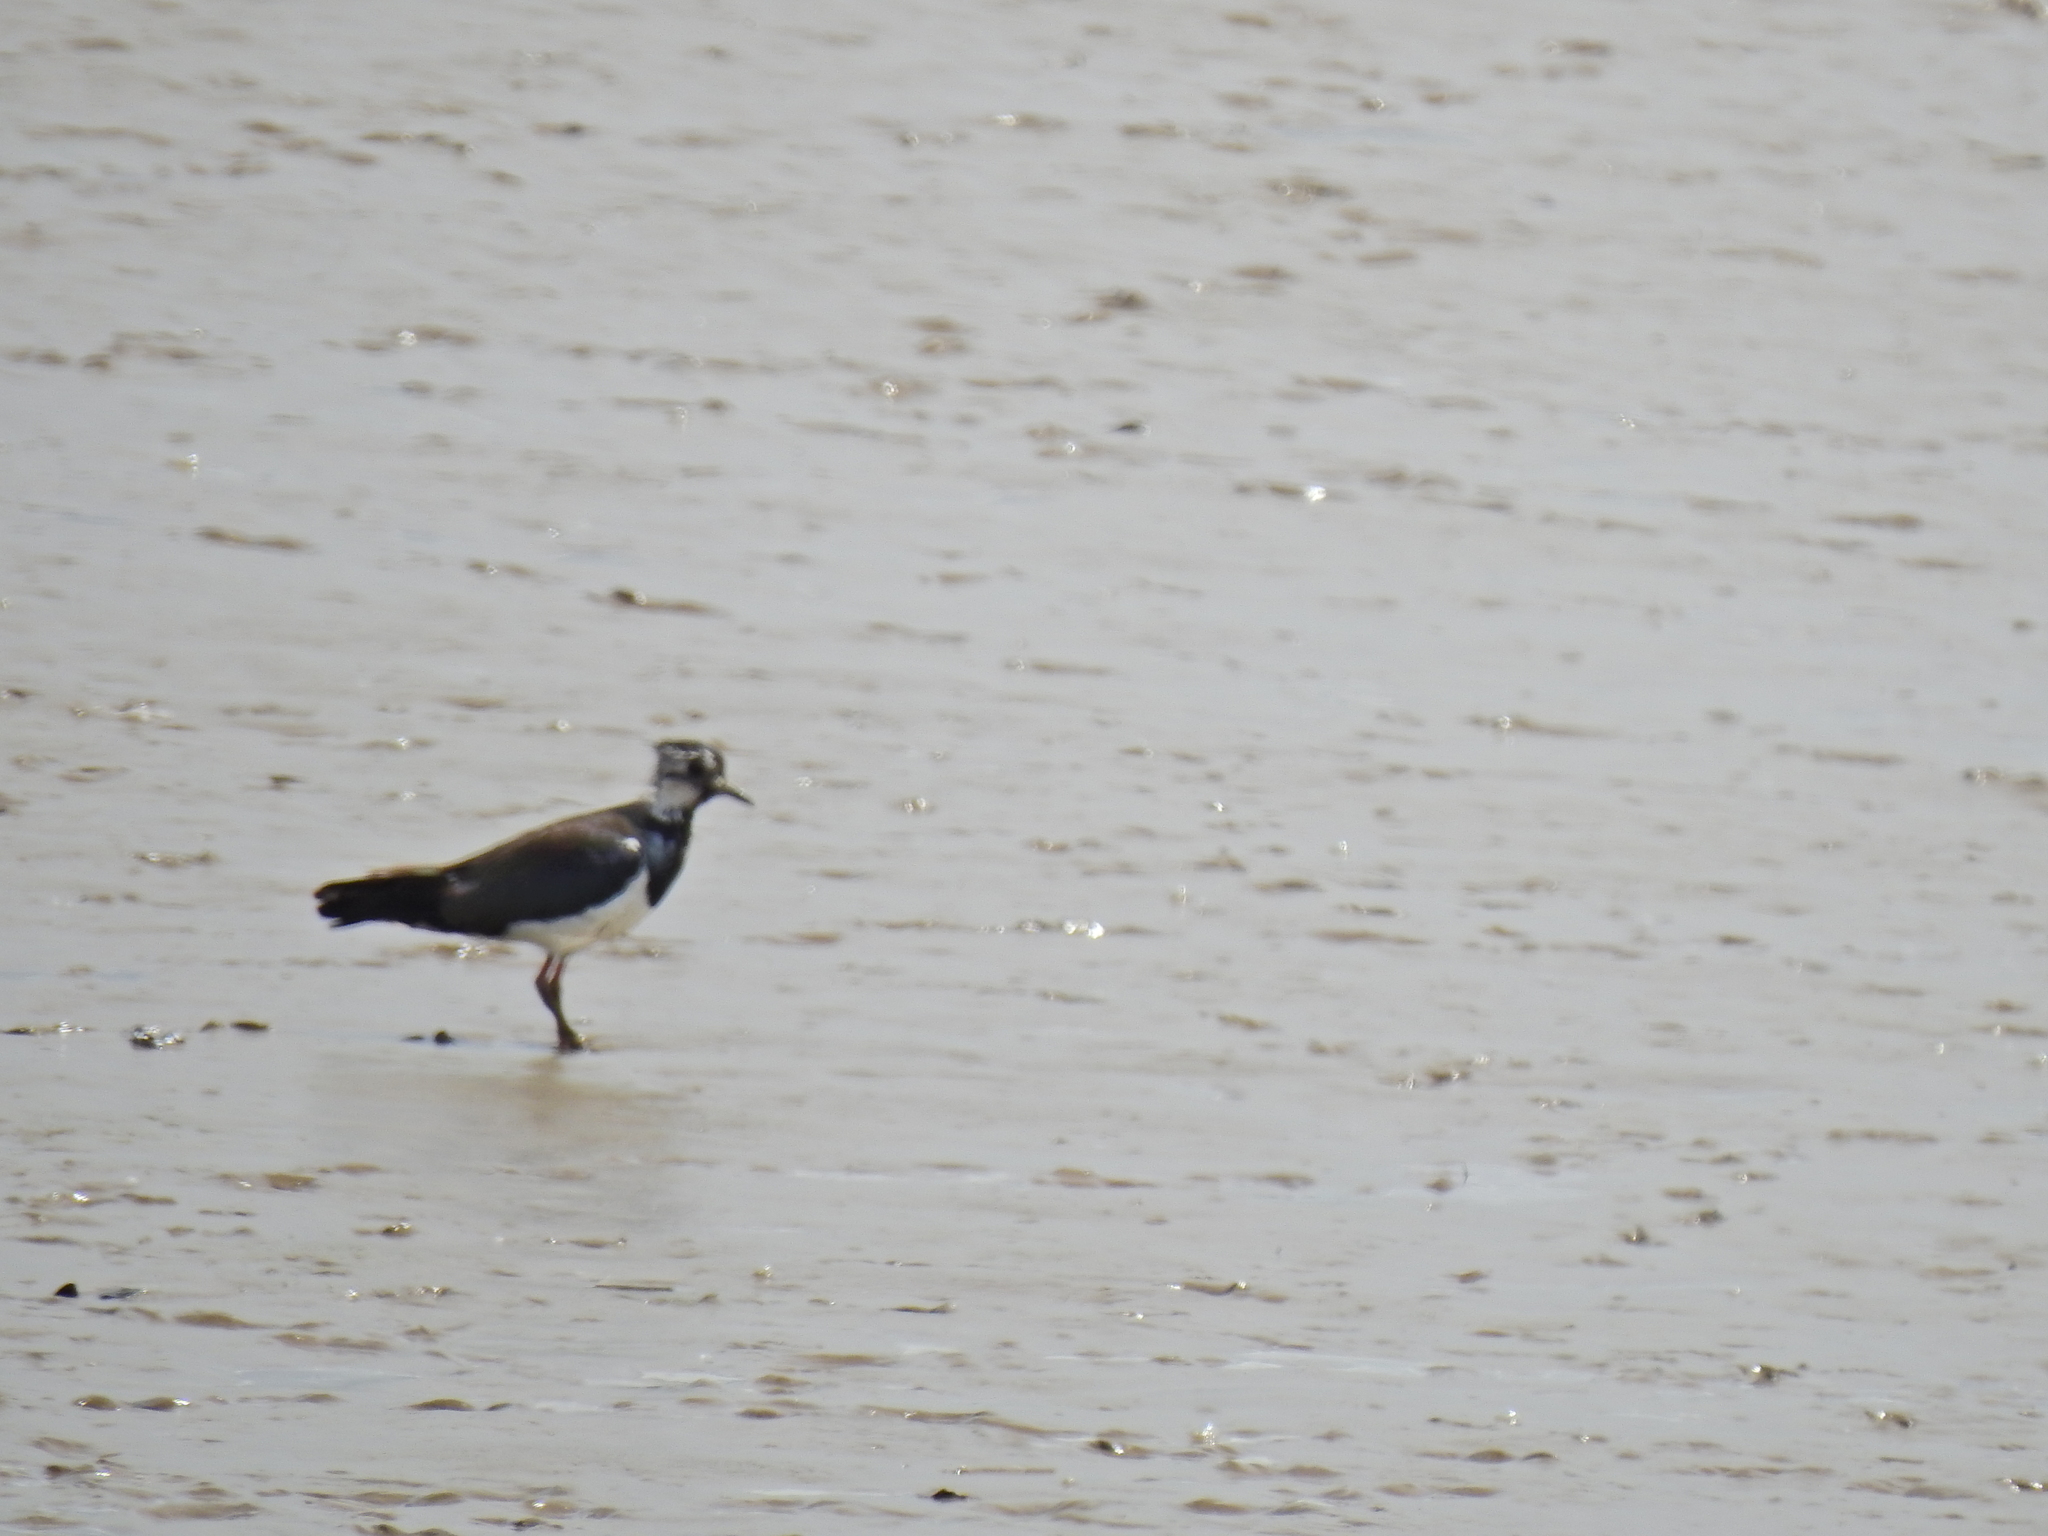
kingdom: Animalia
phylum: Chordata
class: Aves
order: Charadriiformes
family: Charadriidae
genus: Vanellus
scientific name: Vanellus vanellus
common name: Northern lapwing
